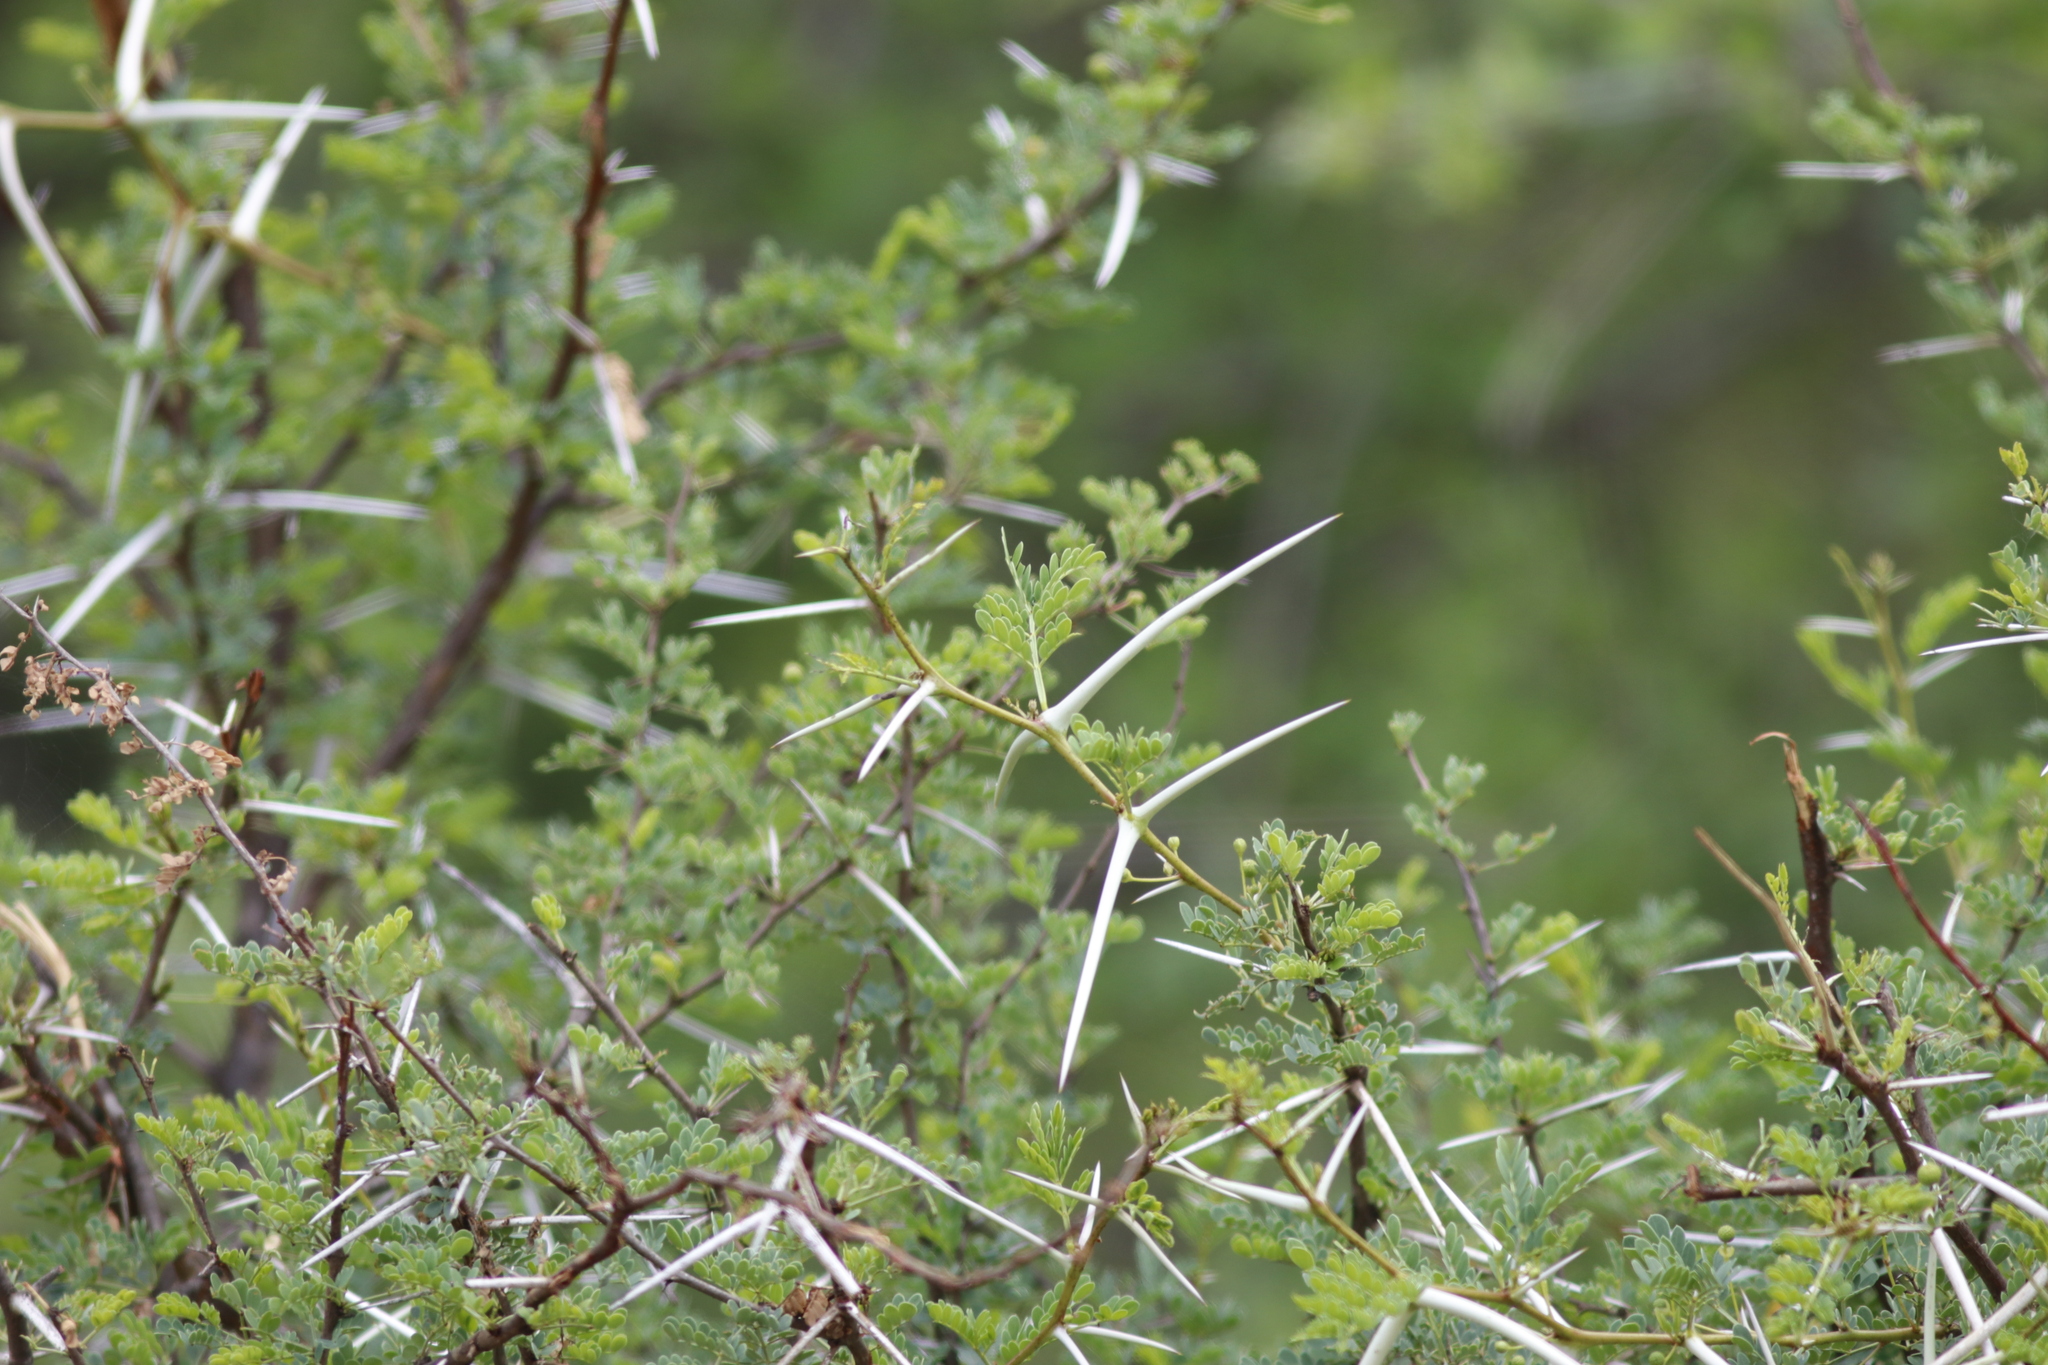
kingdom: Plantae
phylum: Tracheophyta
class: Magnoliopsida
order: Fabales
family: Fabaceae
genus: Vachellia
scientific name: Vachellia exuvialis
